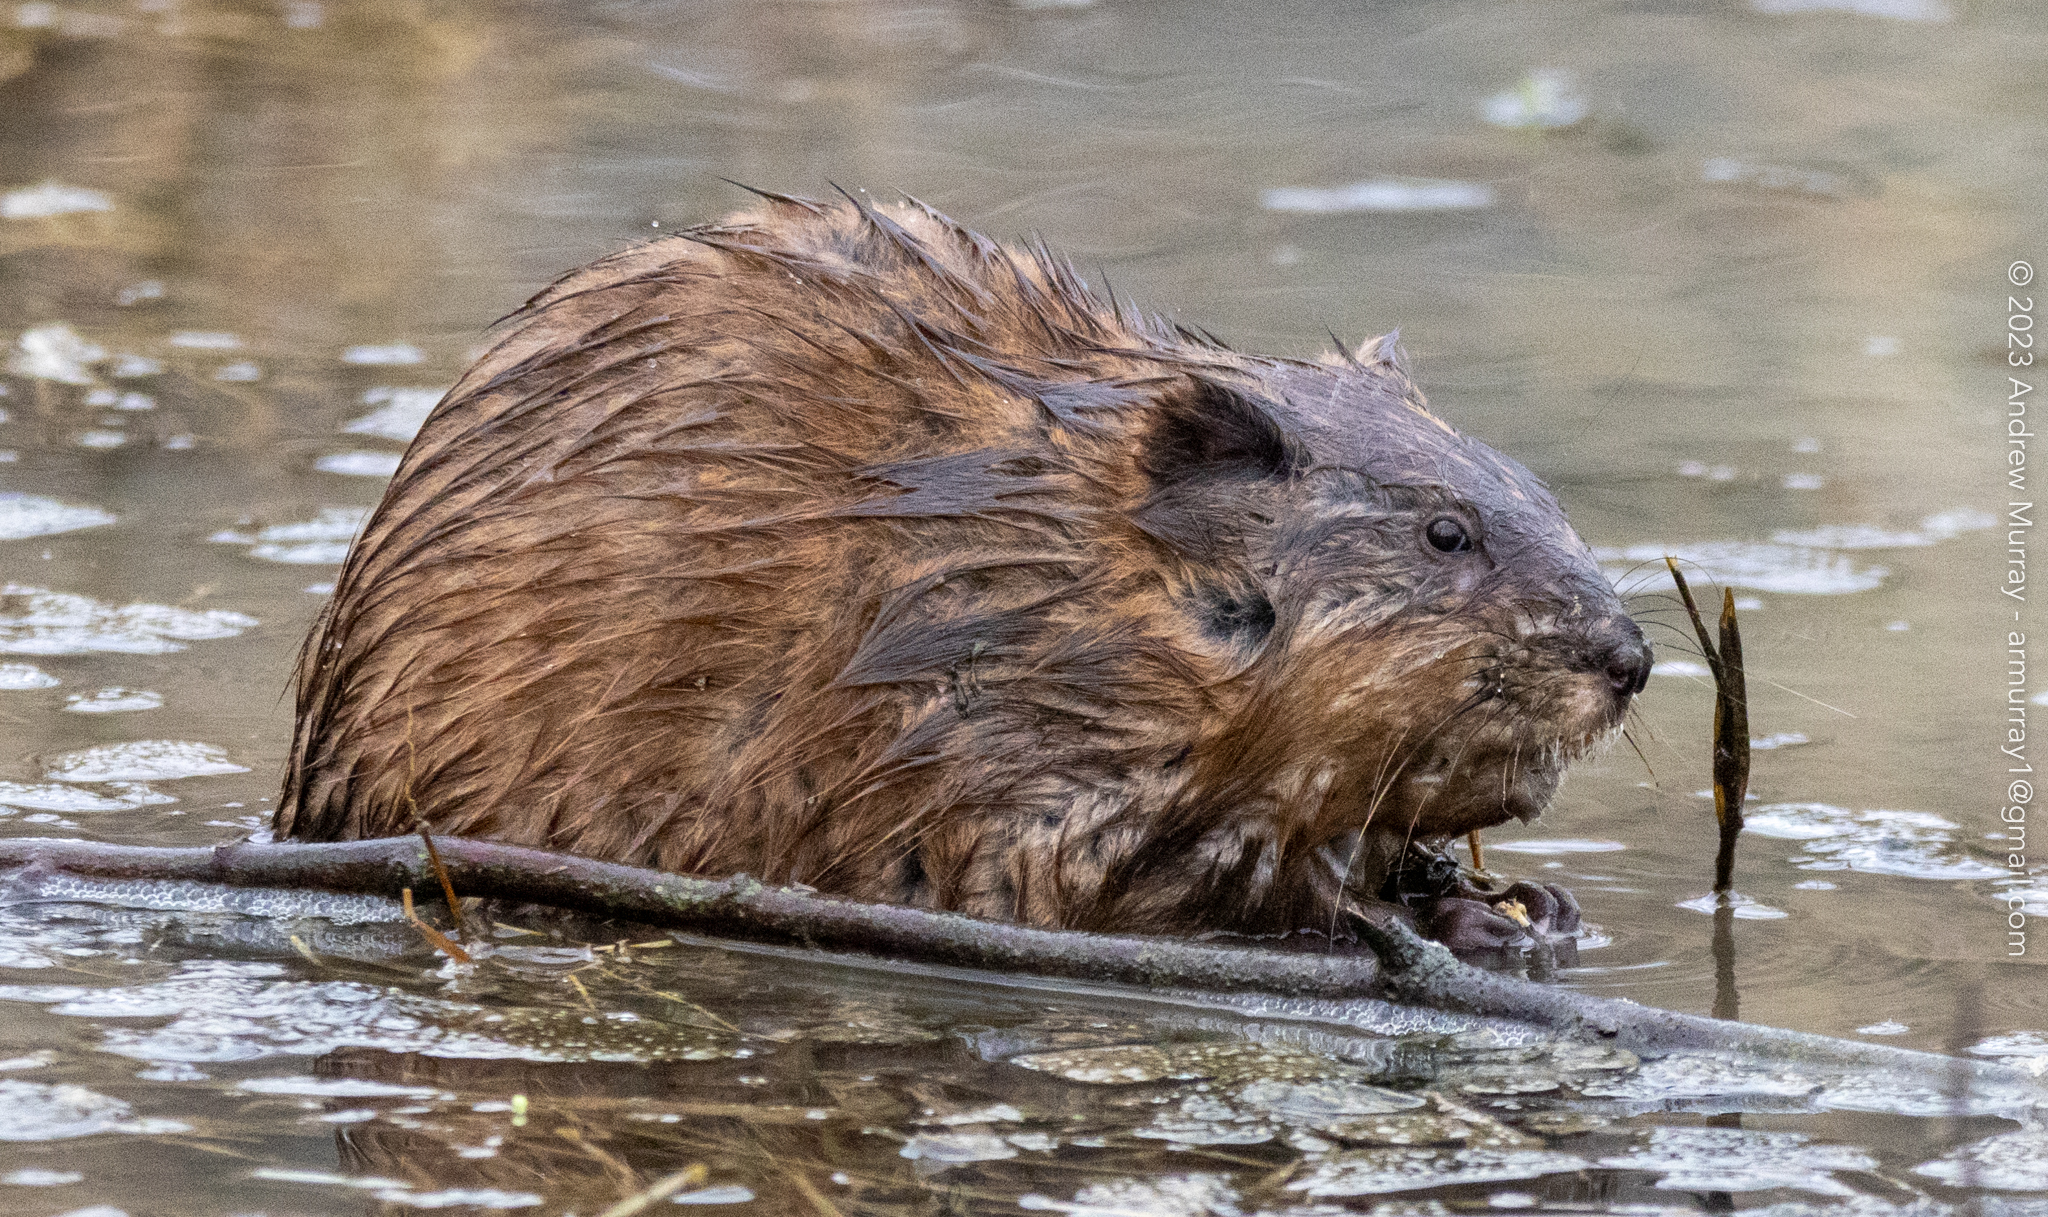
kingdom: Animalia
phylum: Chordata
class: Mammalia
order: Rodentia
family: Cricetidae
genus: Ondatra
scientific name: Ondatra zibethicus
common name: Muskrat
